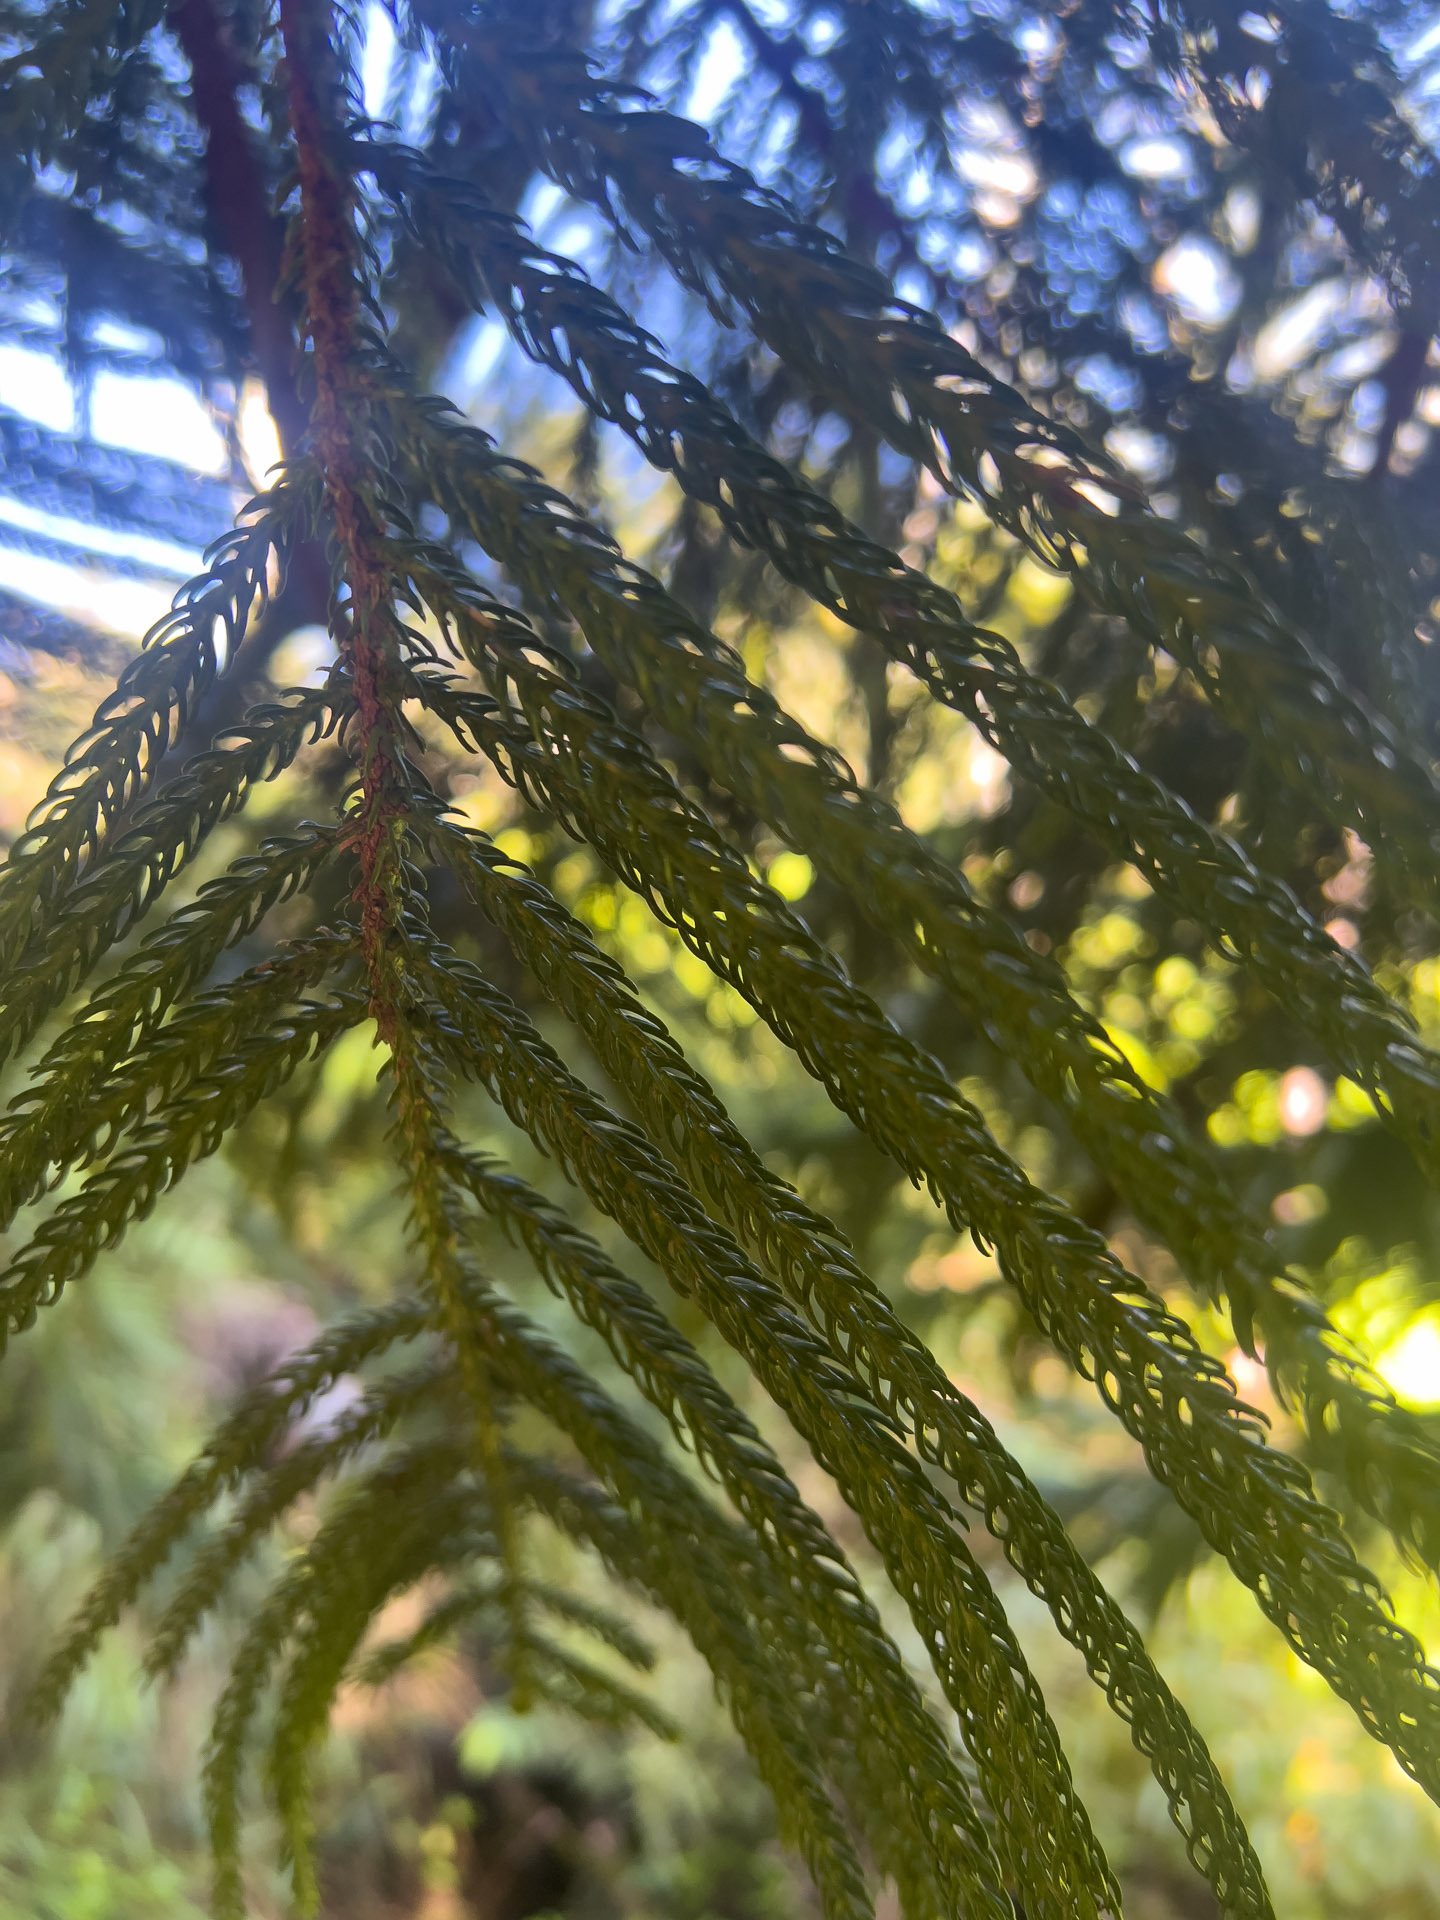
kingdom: Plantae
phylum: Tracheophyta
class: Pinopsida
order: Pinales
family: Araucariaceae
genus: Araucaria
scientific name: Araucaria columnaris
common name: Coral reef araucaria
